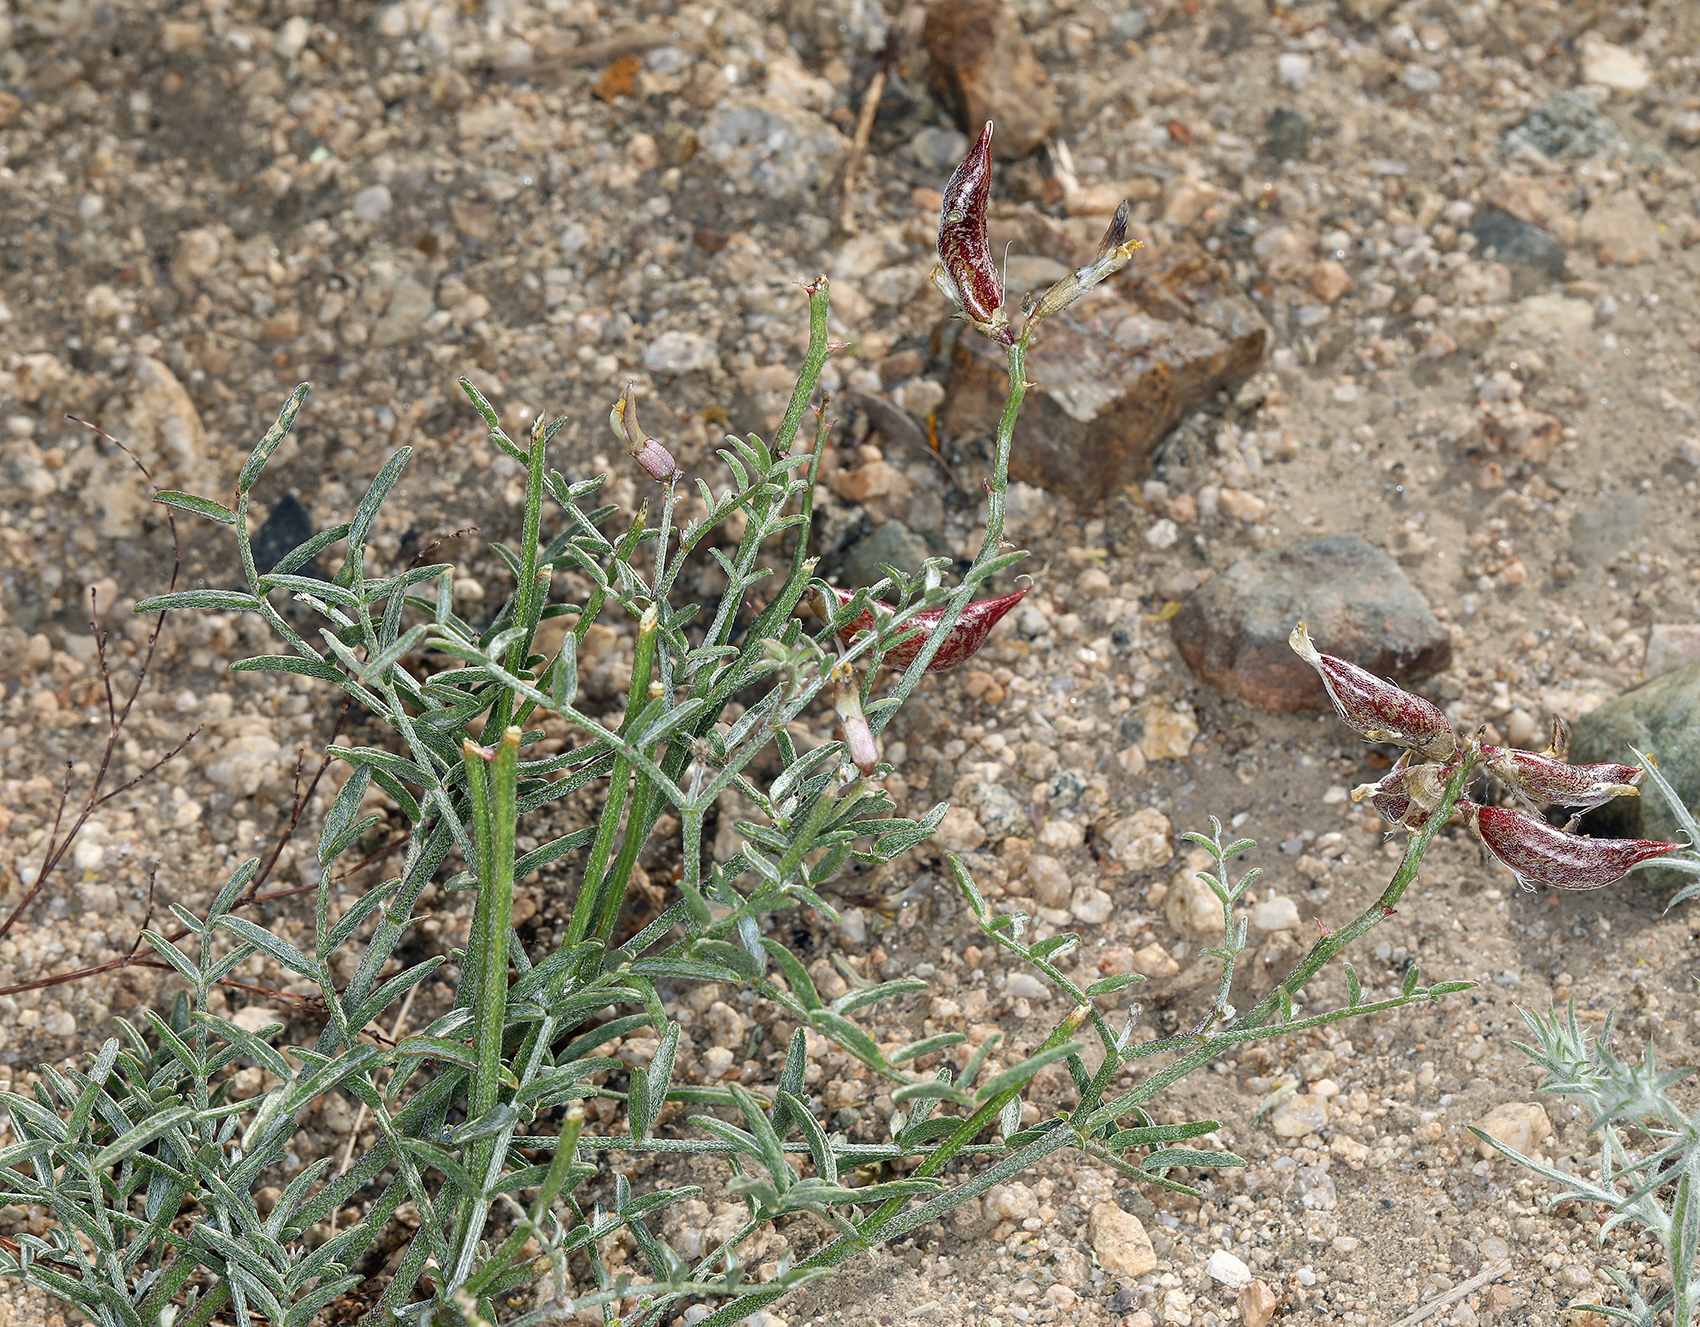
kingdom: Plantae
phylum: Tracheophyta
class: Magnoliopsida
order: Fabales
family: Fabaceae
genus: Astragalus
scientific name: Astragalus casei
